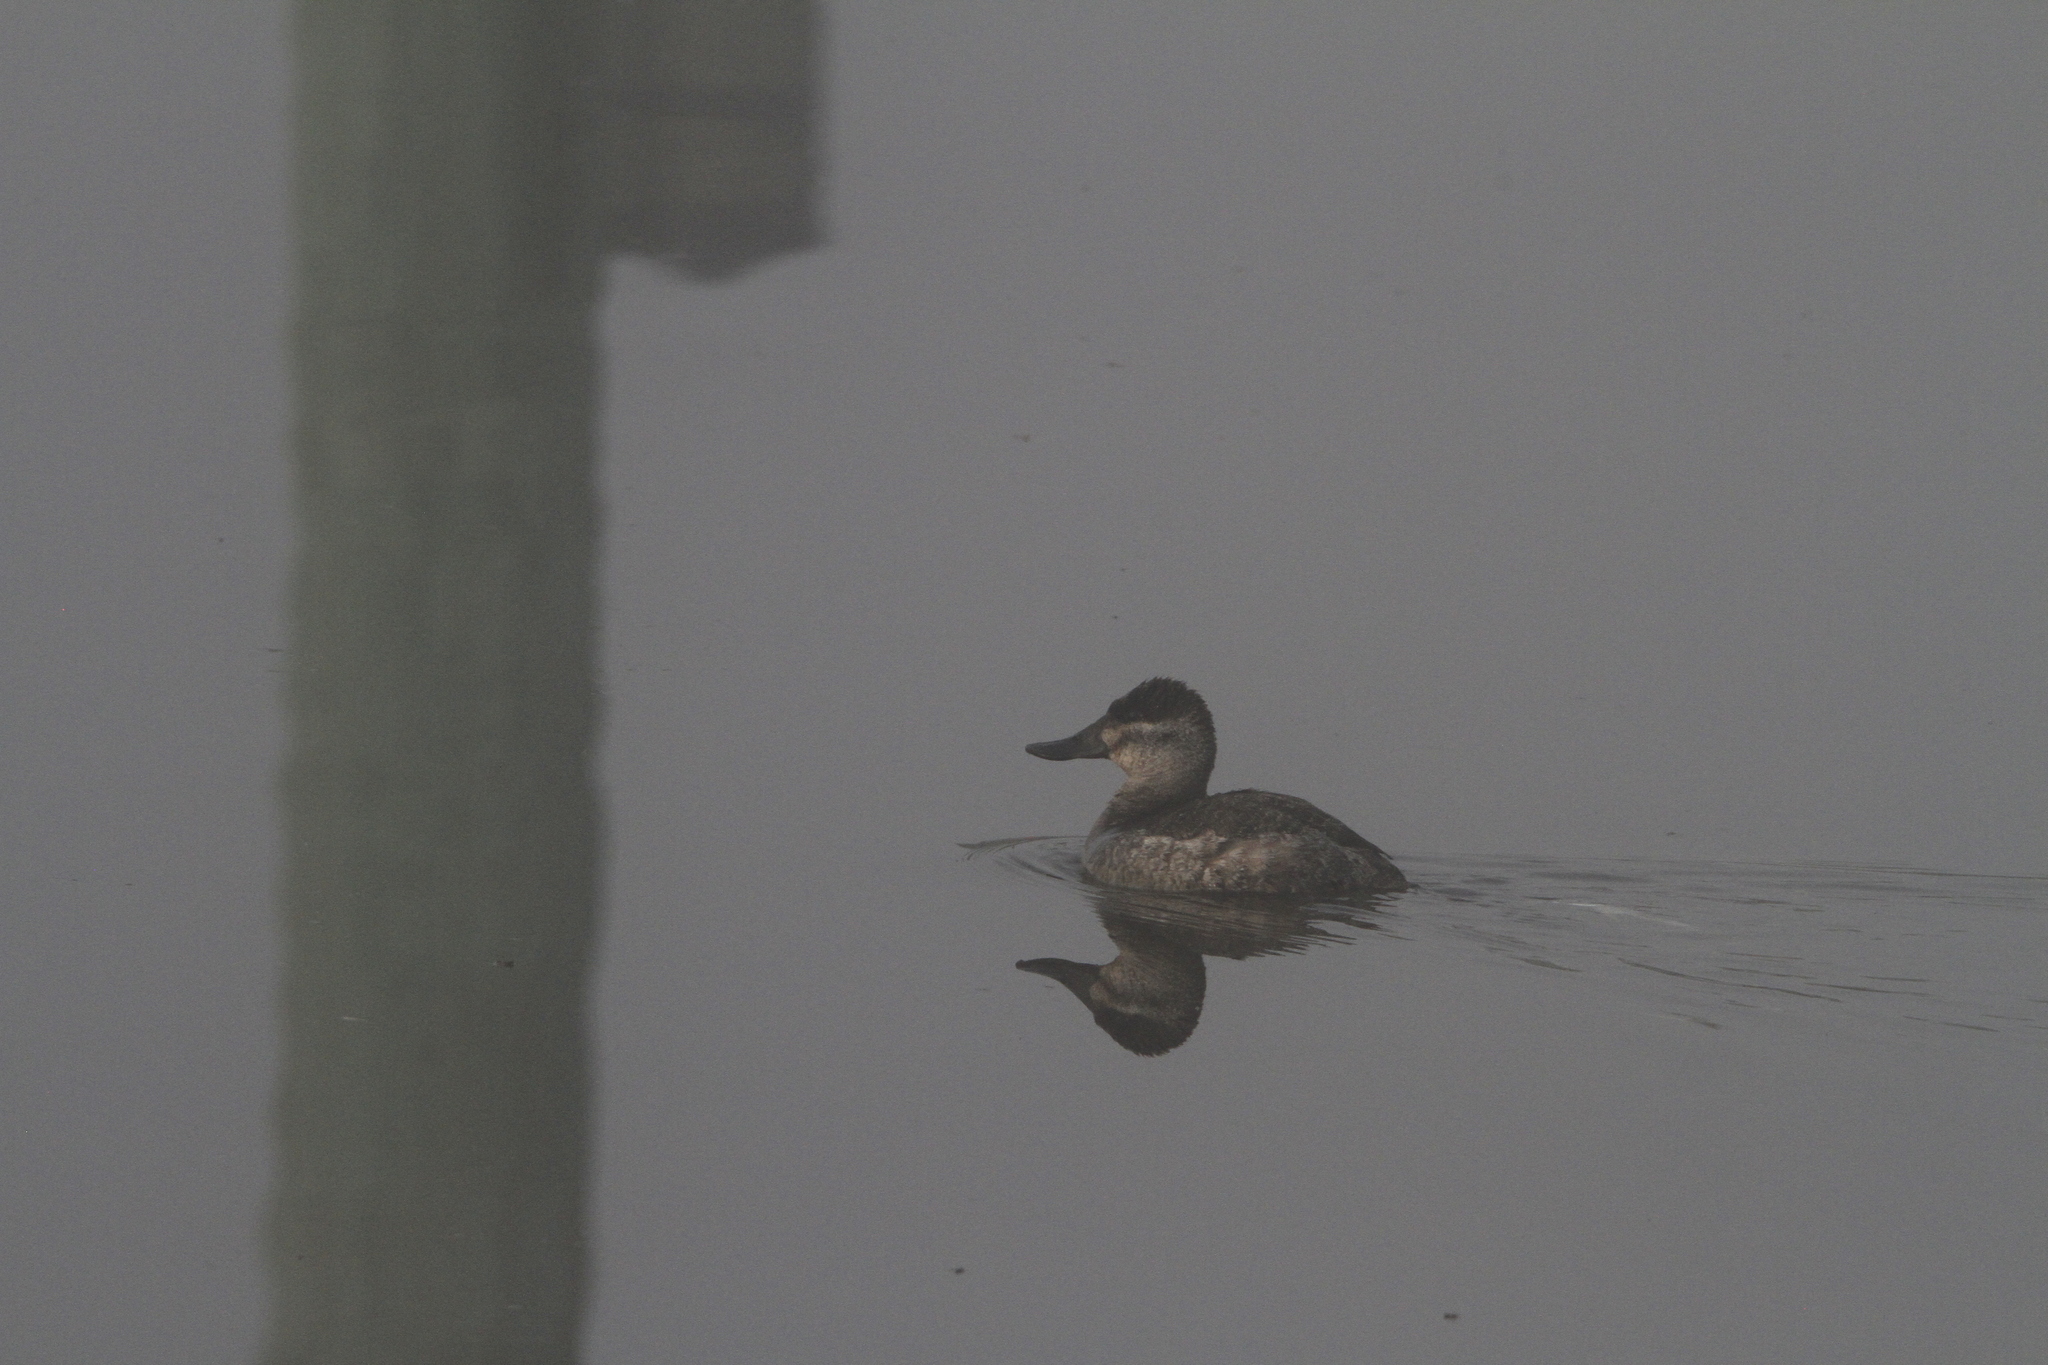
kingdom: Animalia
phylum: Chordata
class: Aves
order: Anseriformes
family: Anatidae
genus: Oxyura
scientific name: Oxyura jamaicensis
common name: Ruddy duck
